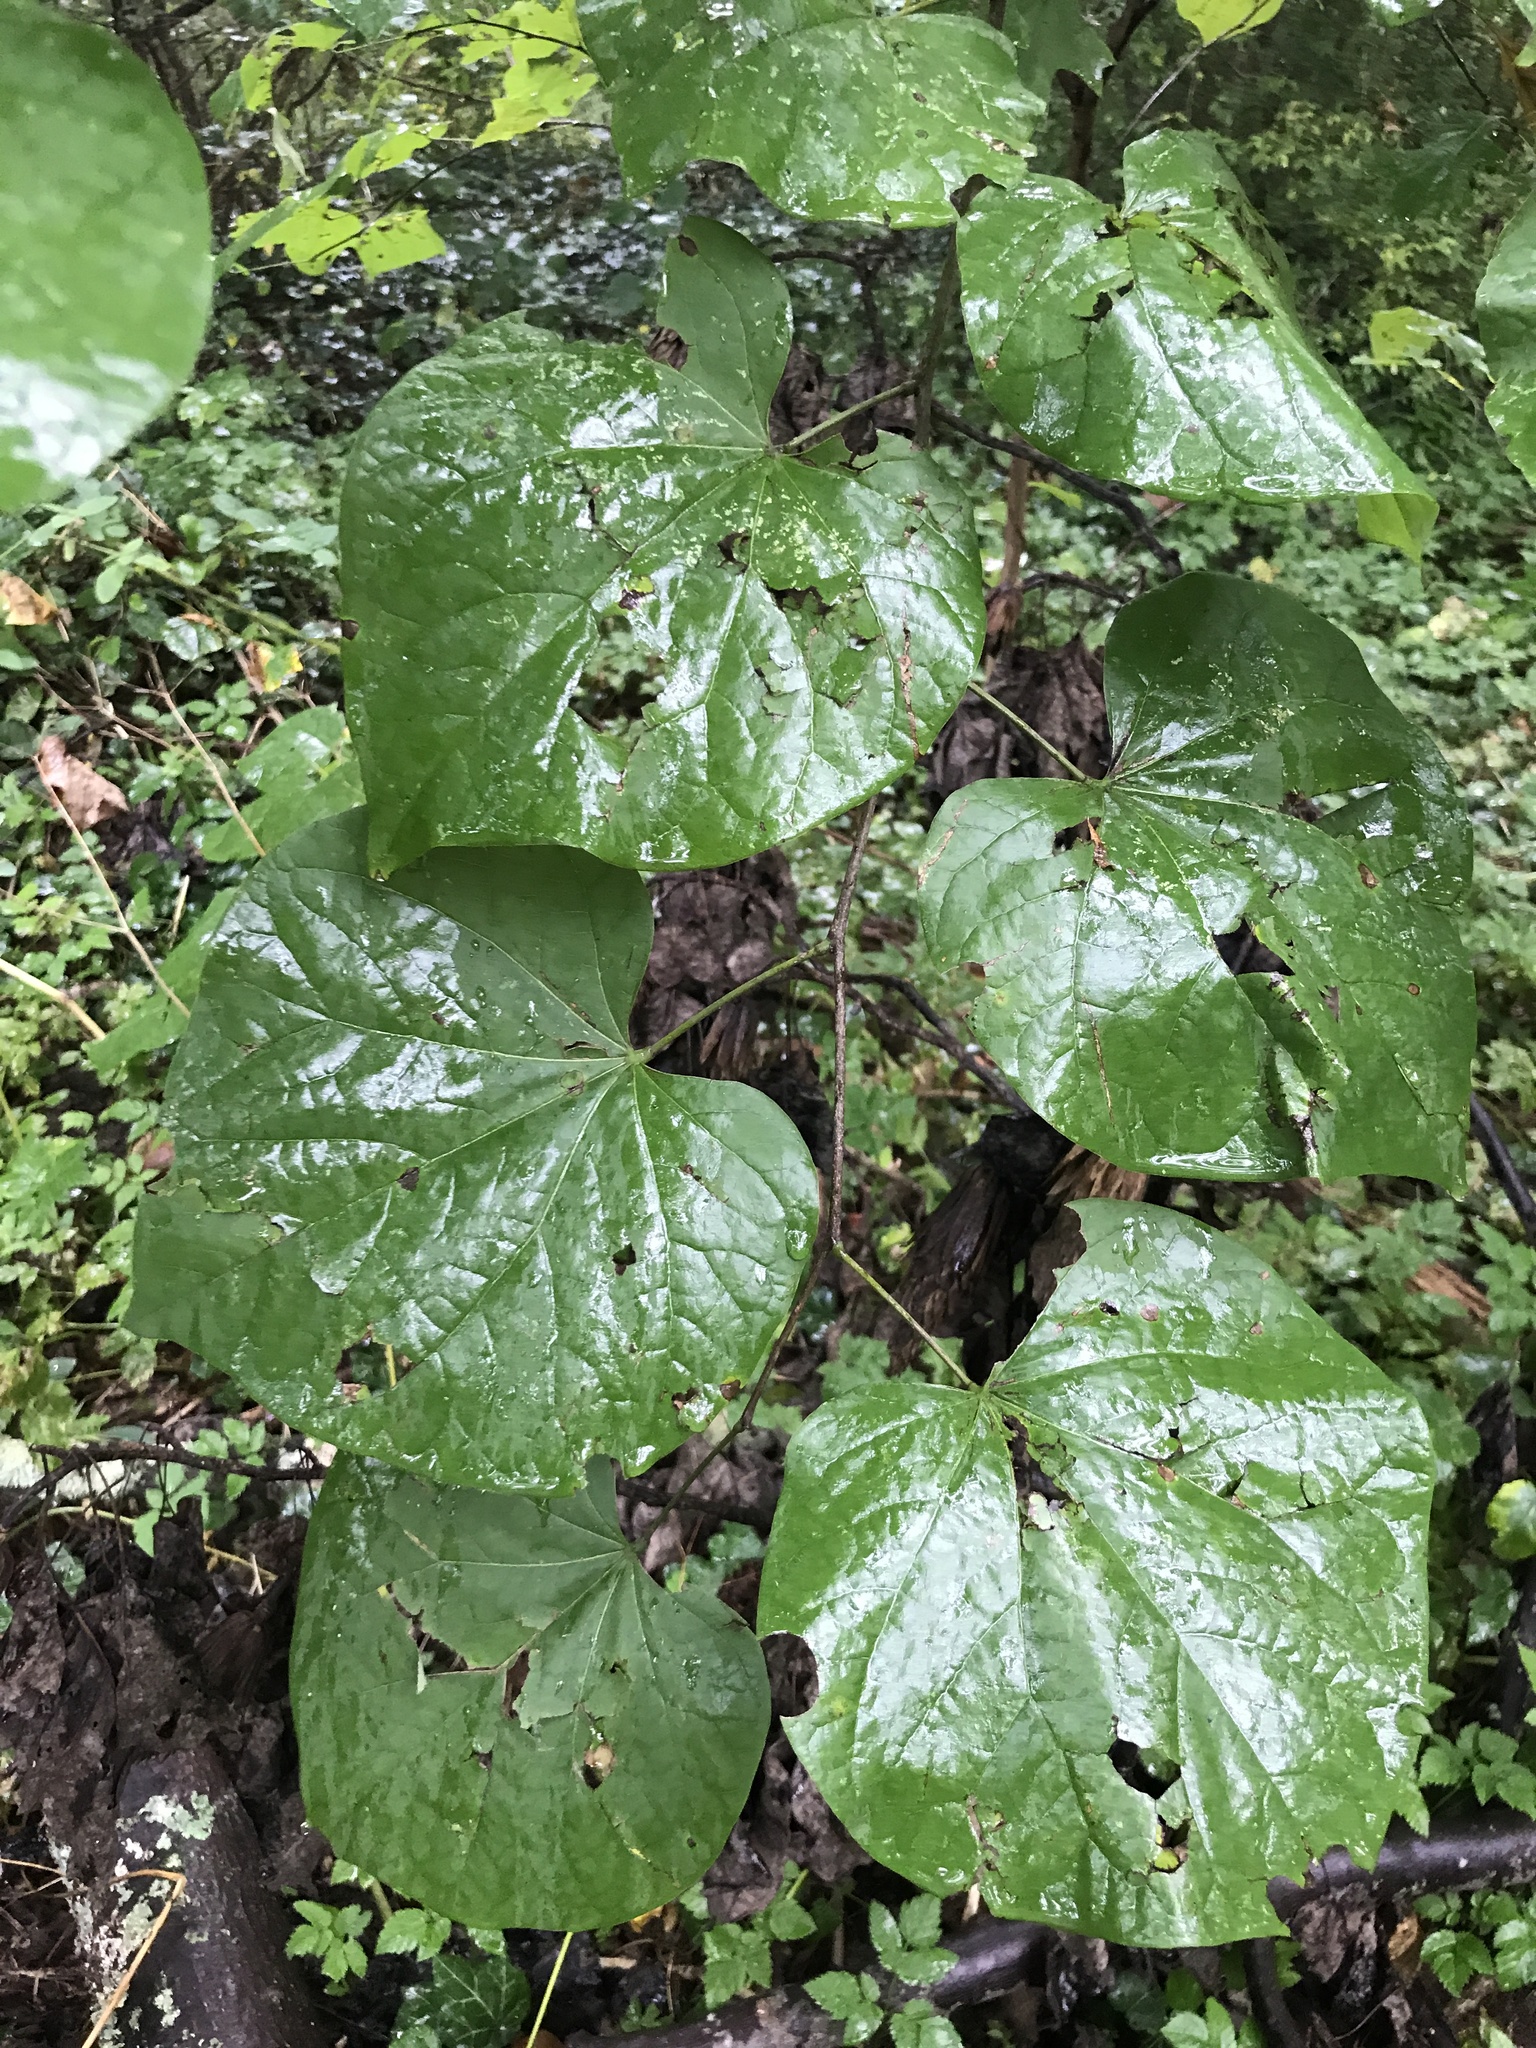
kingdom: Plantae
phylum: Tracheophyta
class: Magnoliopsida
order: Fabales
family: Fabaceae
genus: Cercis
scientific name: Cercis canadensis
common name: Eastern redbud
